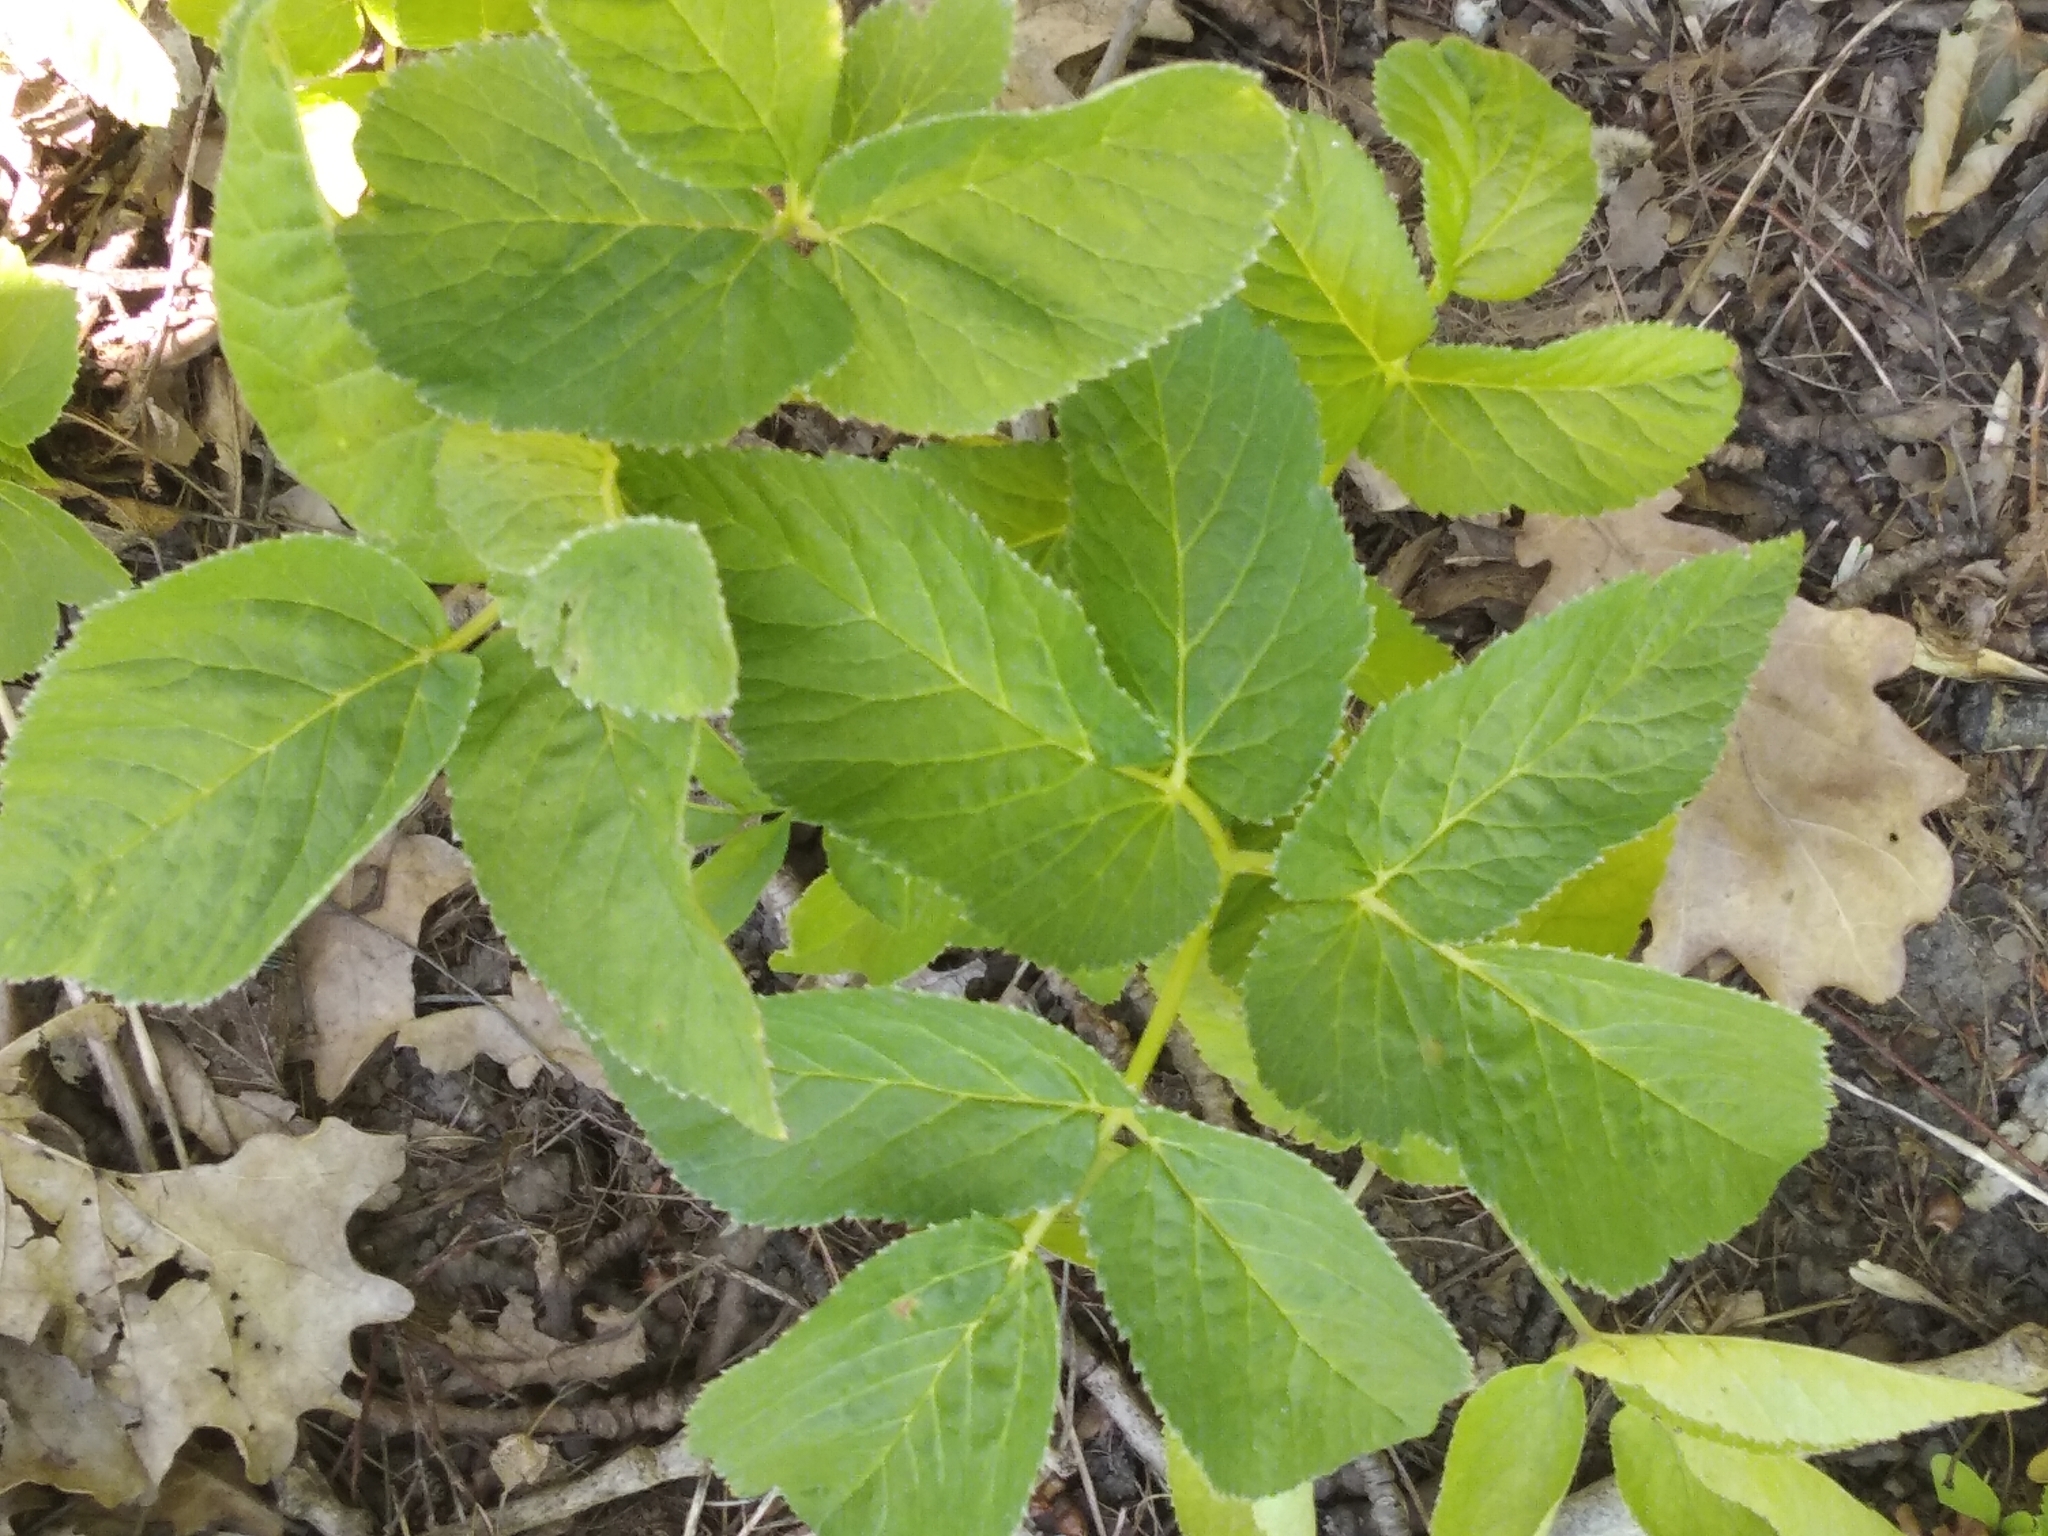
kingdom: Plantae
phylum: Tracheophyta
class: Magnoliopsida
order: Apiales
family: Apiaceae
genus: Aegopodium
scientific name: Aegopodium podagraria
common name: Ground-elder
